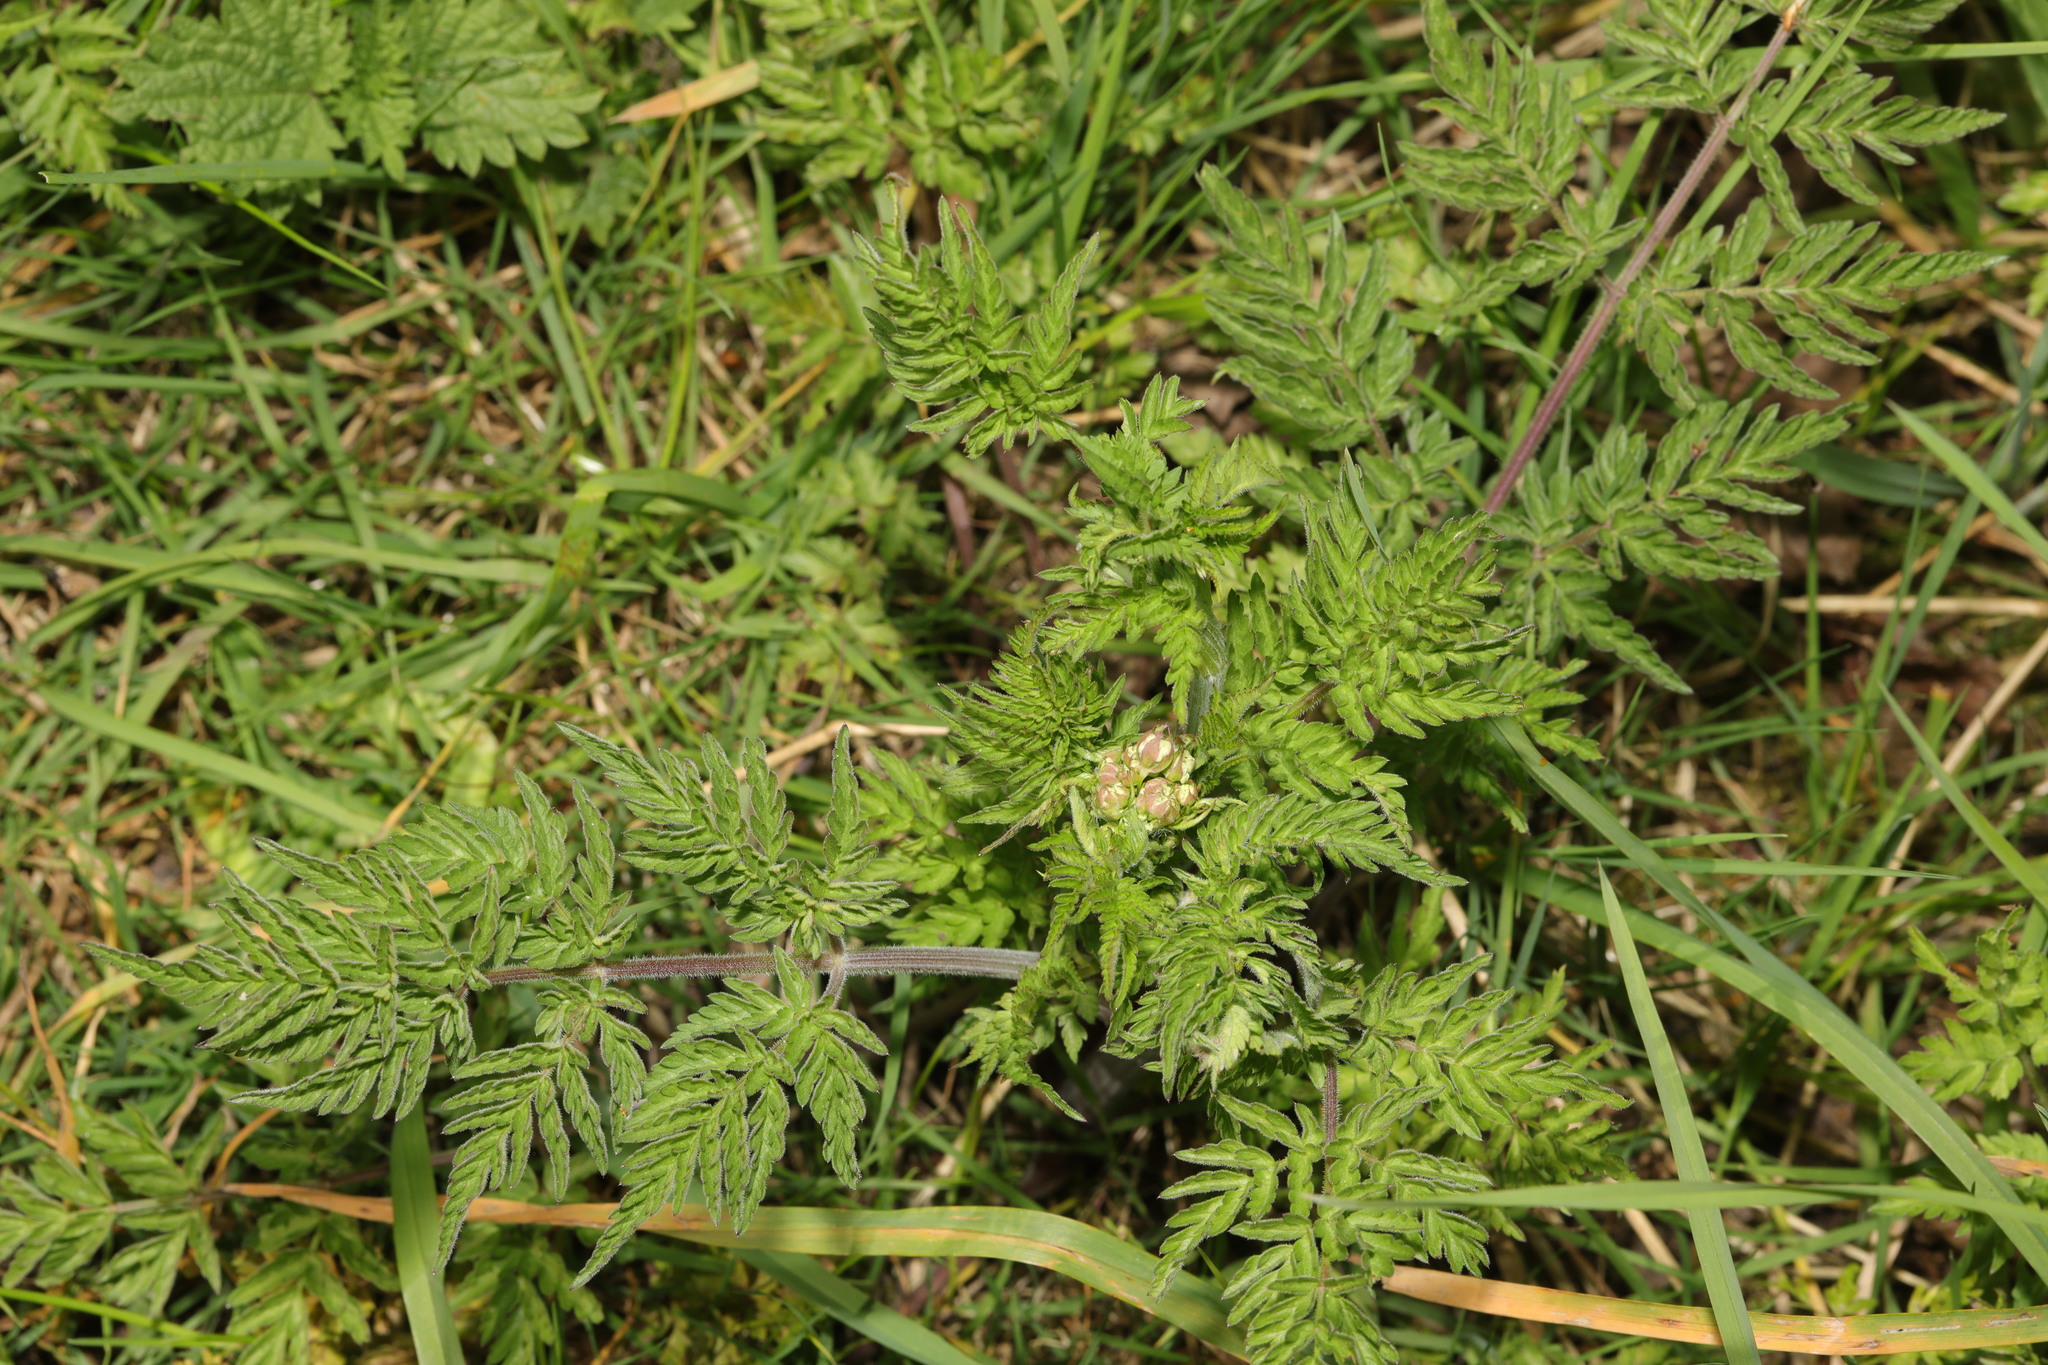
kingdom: Plantae
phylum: Tracheophyta
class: Magnoliopsida
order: Apiales
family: Apiaceae
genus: Anthriscus
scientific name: Anthriscus sylvestris
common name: Cow parsley
